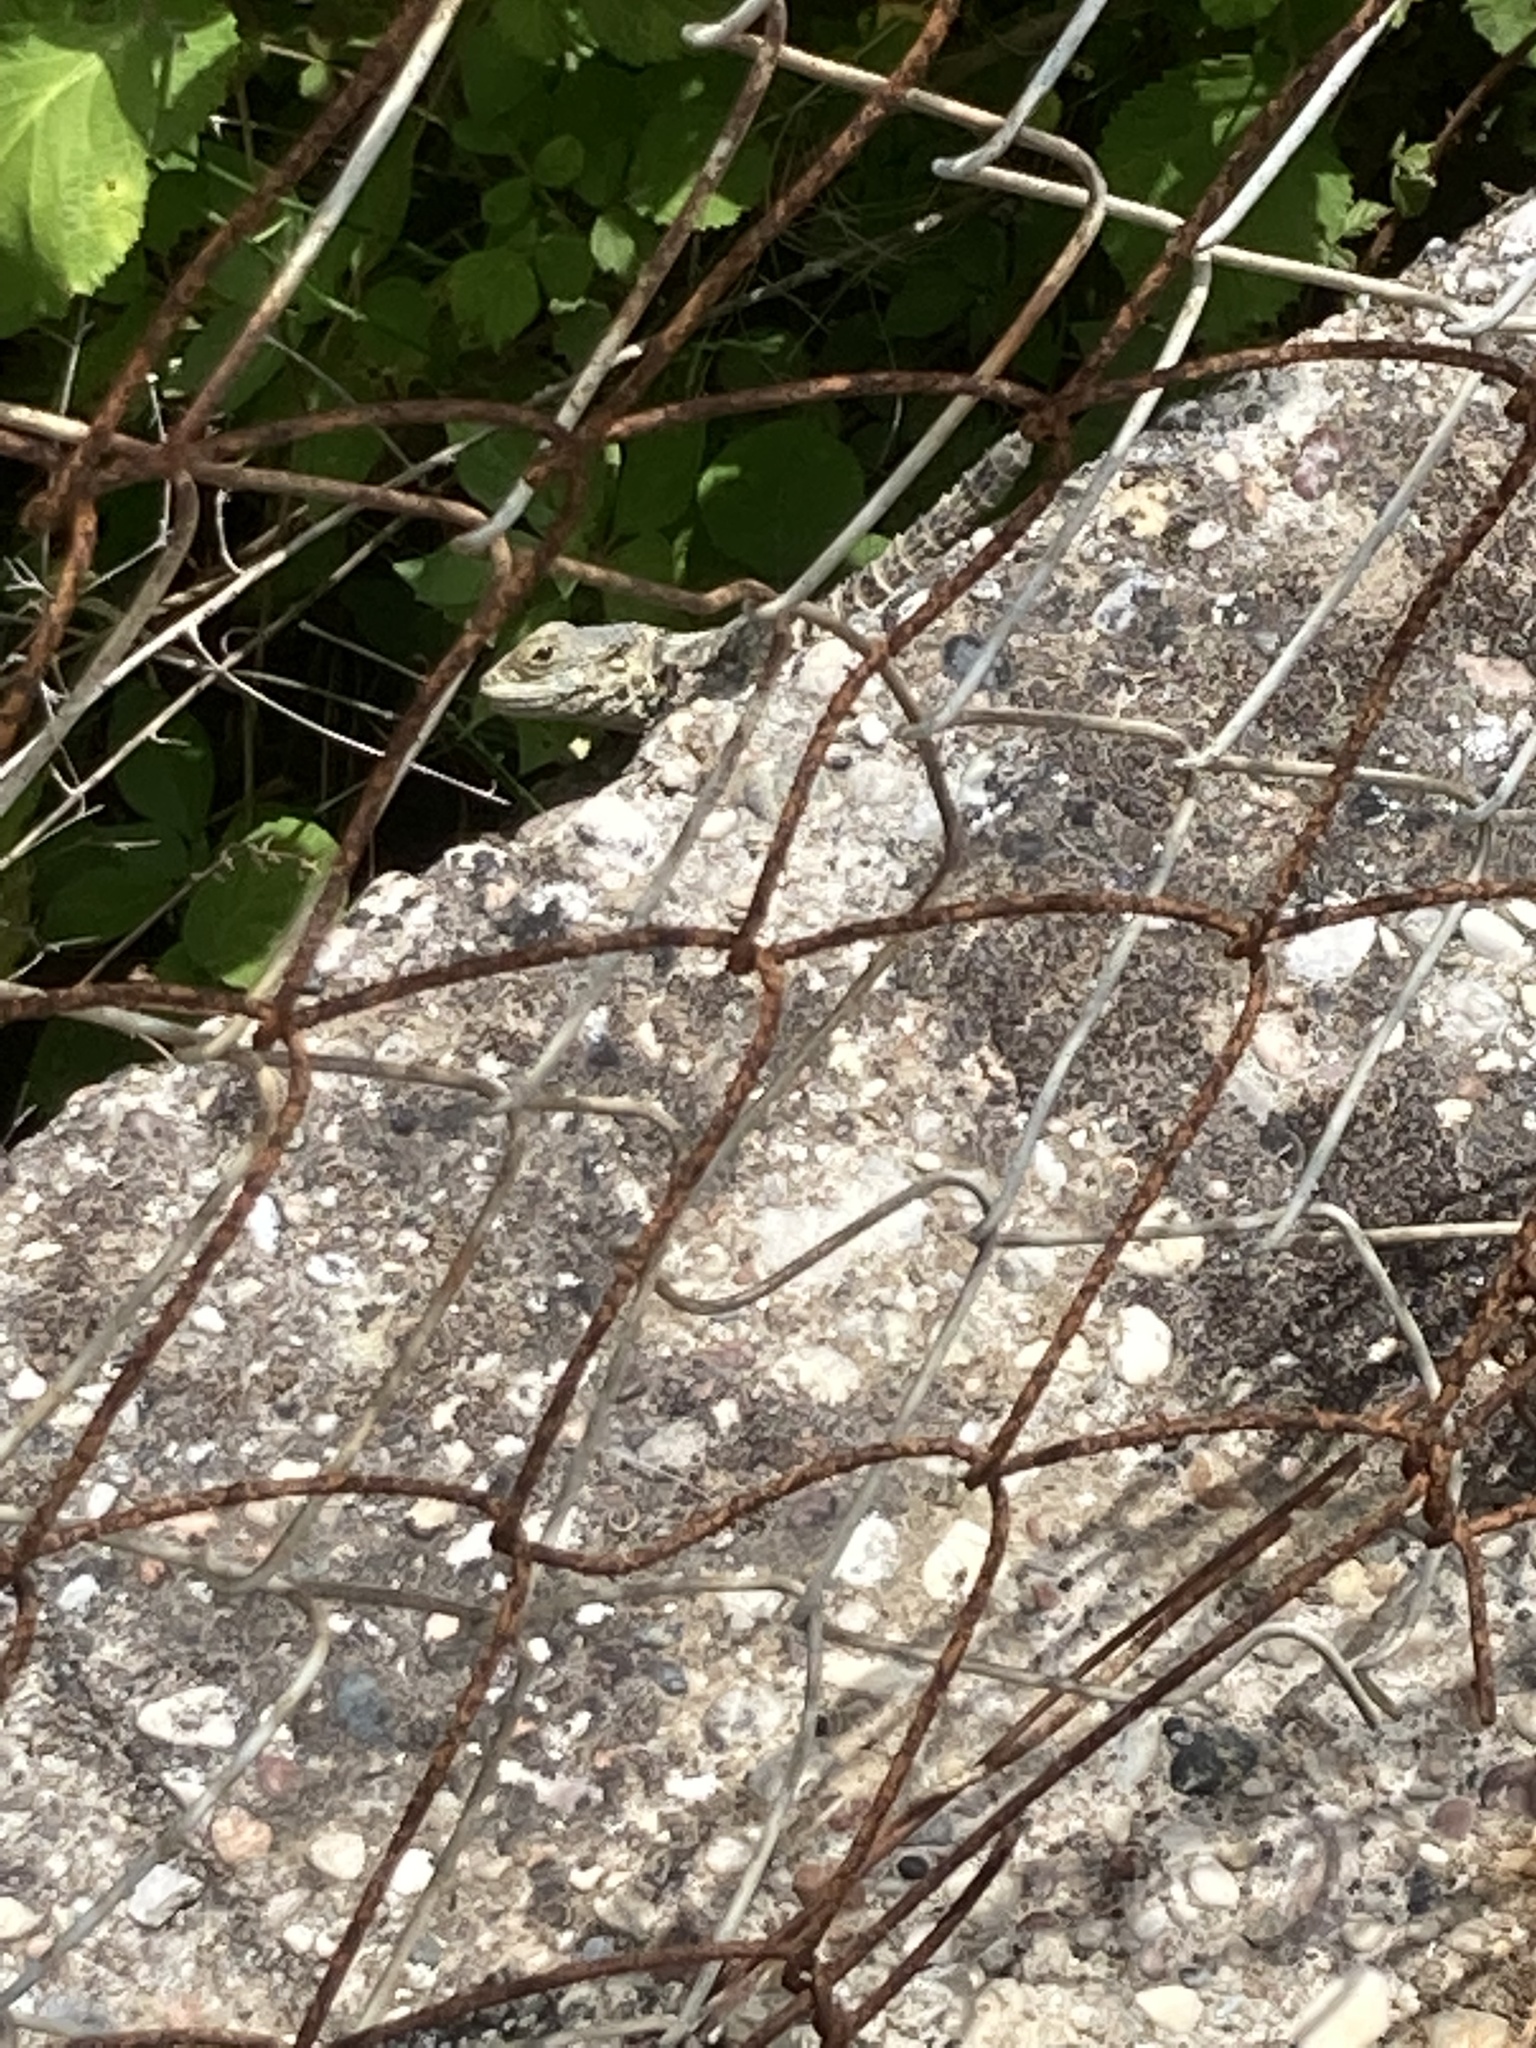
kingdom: Animalia
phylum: Chordata
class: Squamata
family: Agamidae
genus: Stellagama
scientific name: Stellagama stellio
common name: Starred agama
